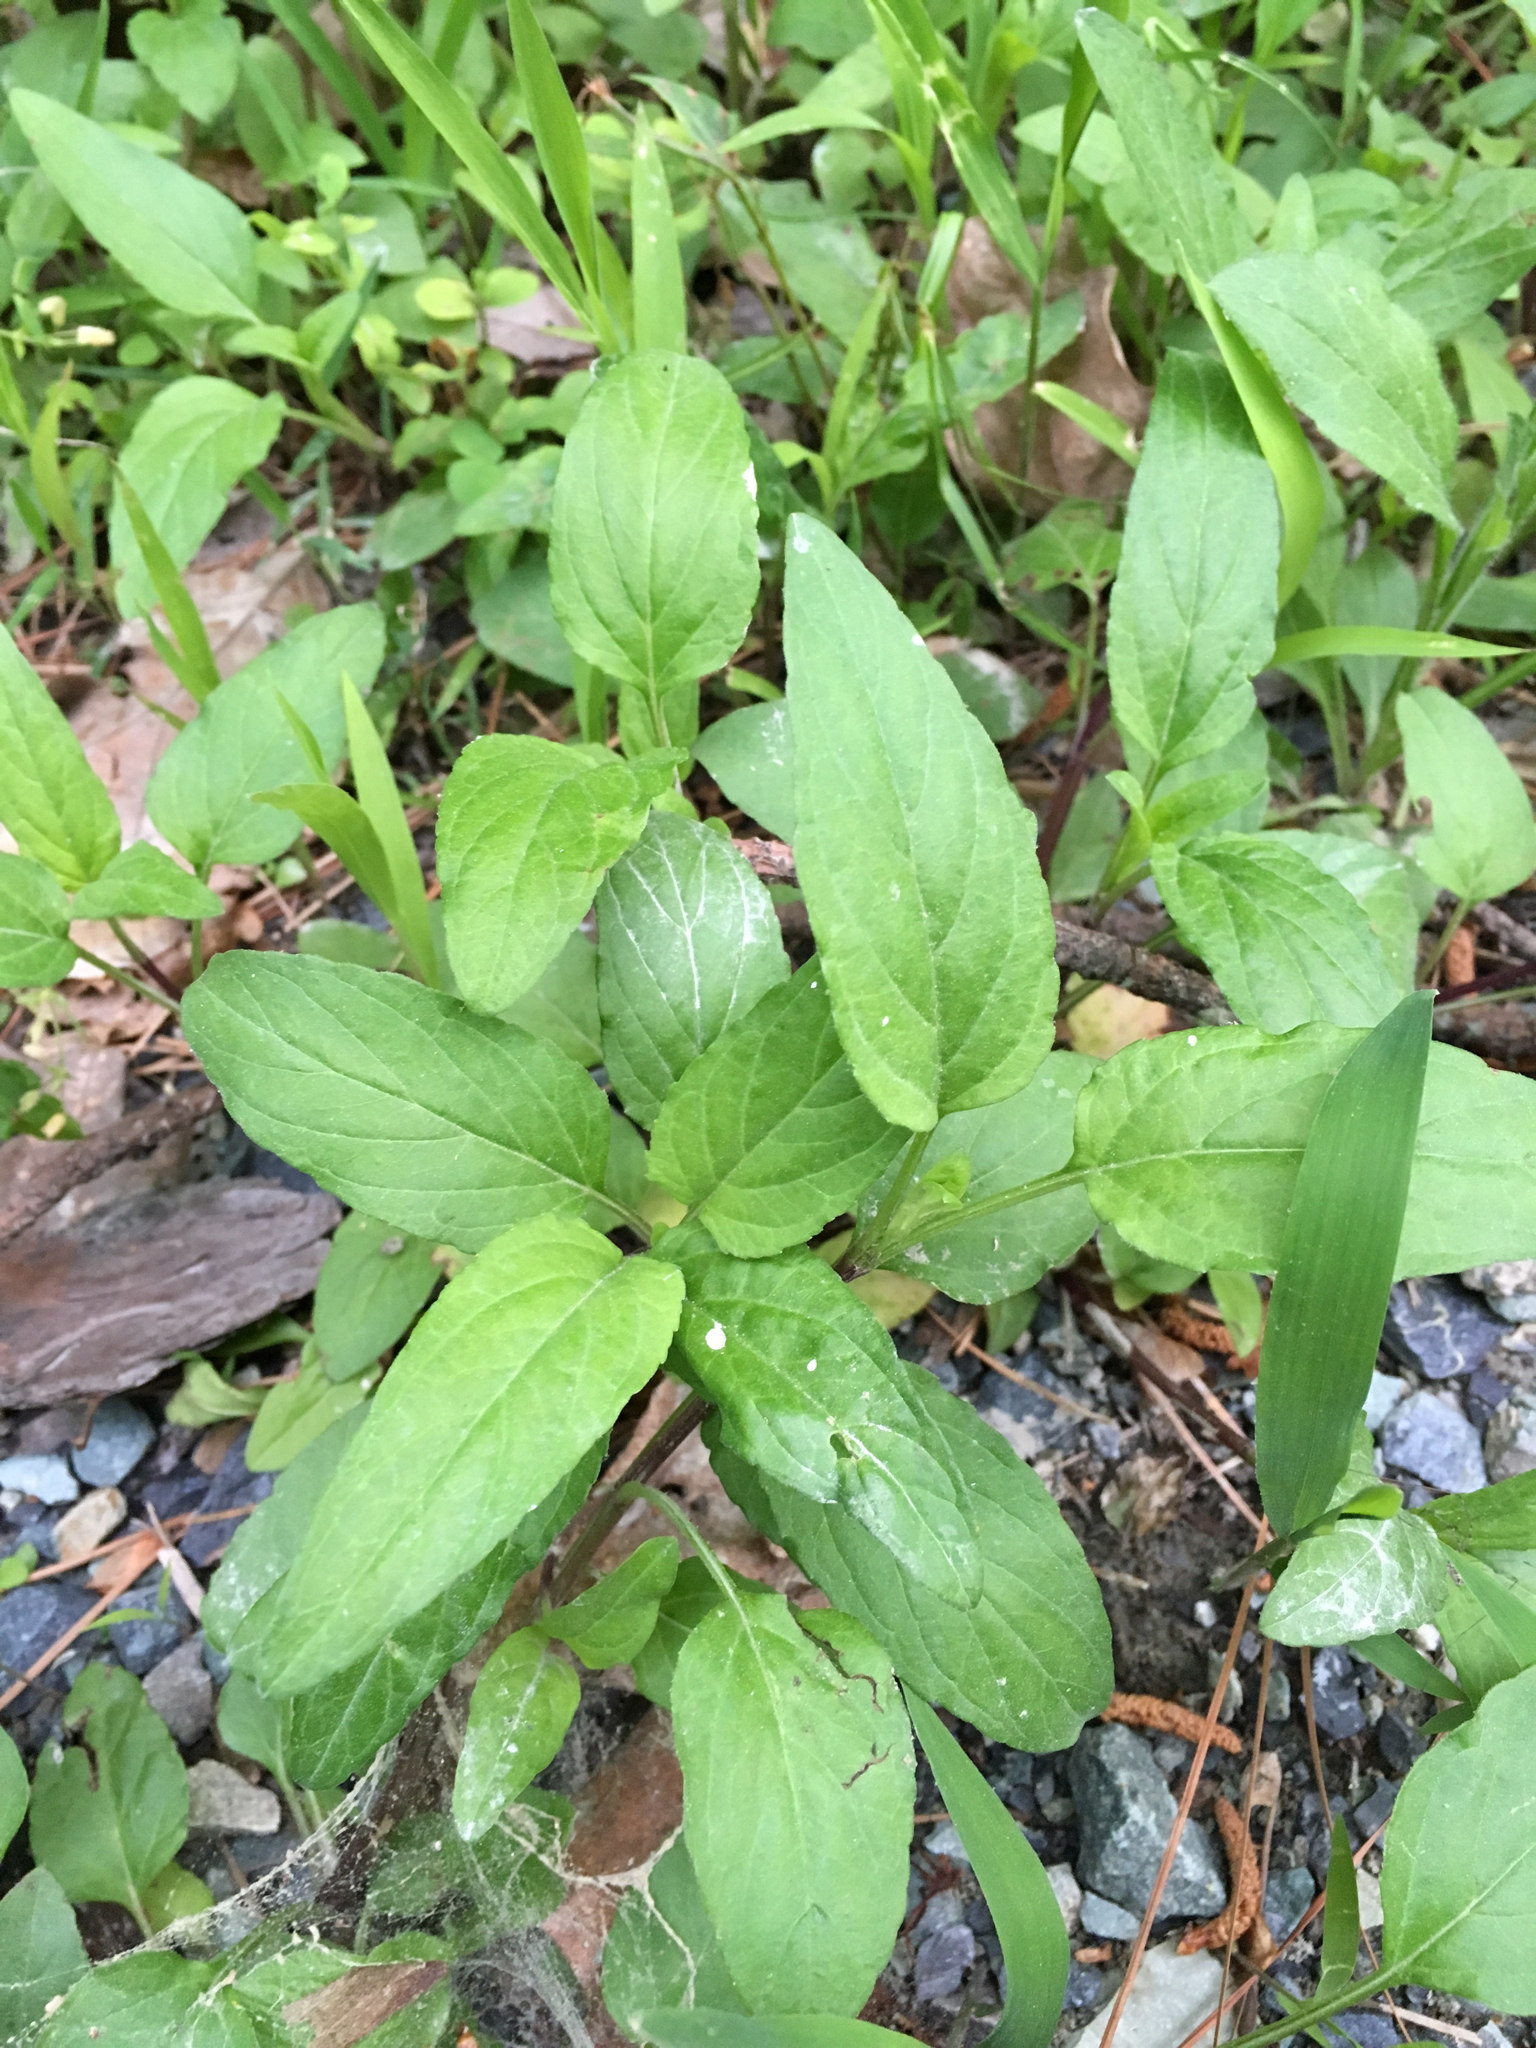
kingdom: Plantae
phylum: Tracheophyta
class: Magnoliopsida
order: Lamiales
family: Lamiaceae
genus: Prunella
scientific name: Prunella vulgaris
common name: Heal-all
